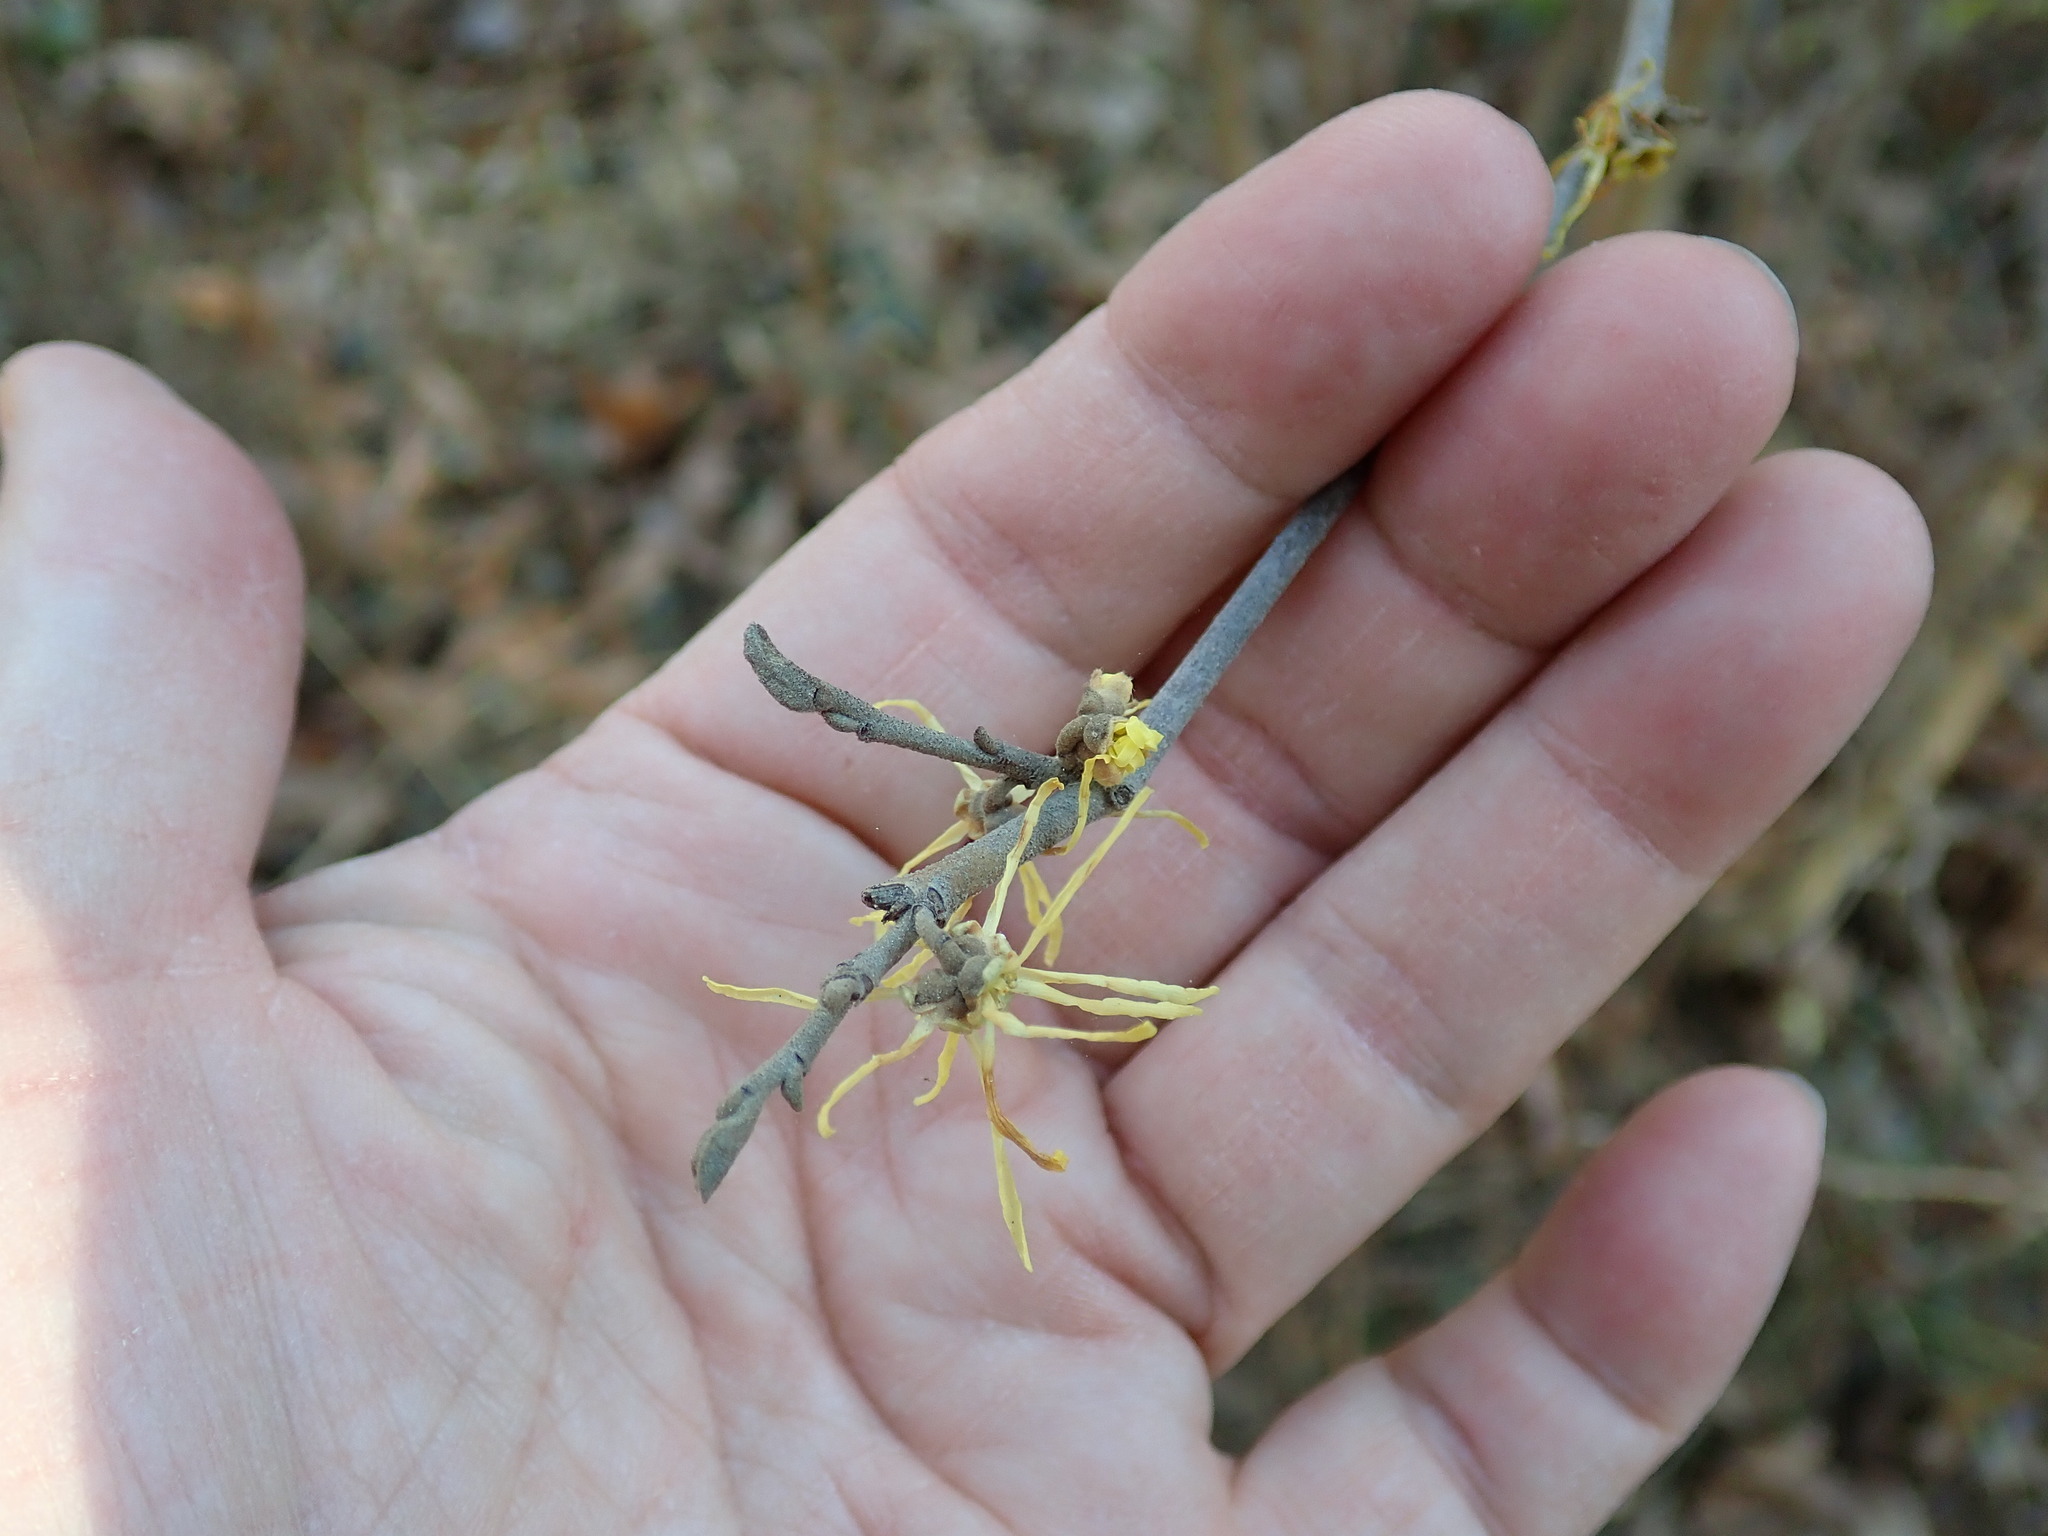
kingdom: Plantae
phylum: Tracheophyta
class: Magnoliopsida
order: Saxifragales
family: Hamamelidaceae
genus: Hamamelis
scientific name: Hamamelis virginiana
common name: Witch-hazel
